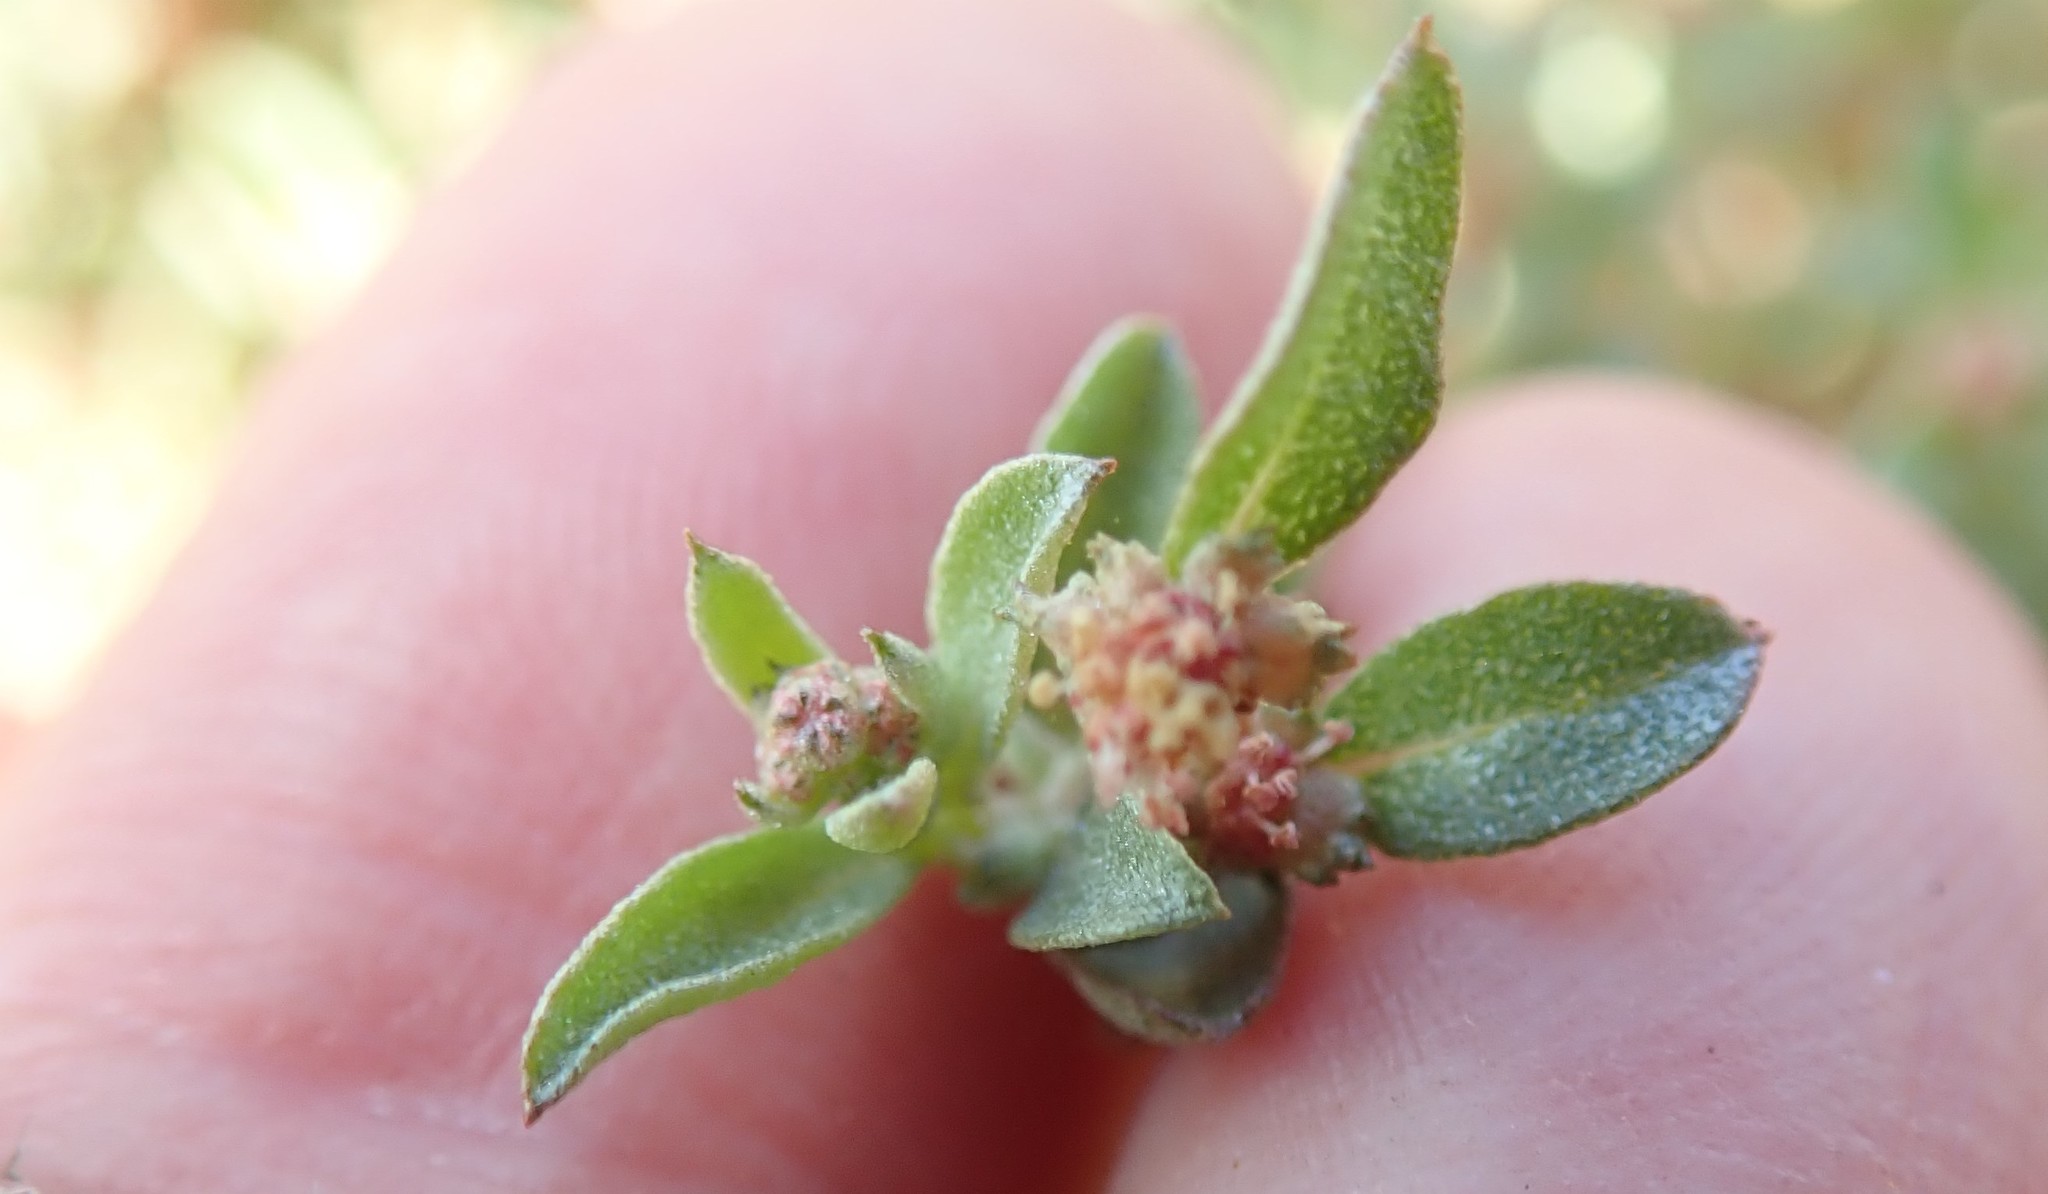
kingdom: Plantae
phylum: Tracheophyta
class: Magnoliopsida
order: Caryophyllales
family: Amaranthaceae
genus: Atriplex
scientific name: Atriplex pacifica
